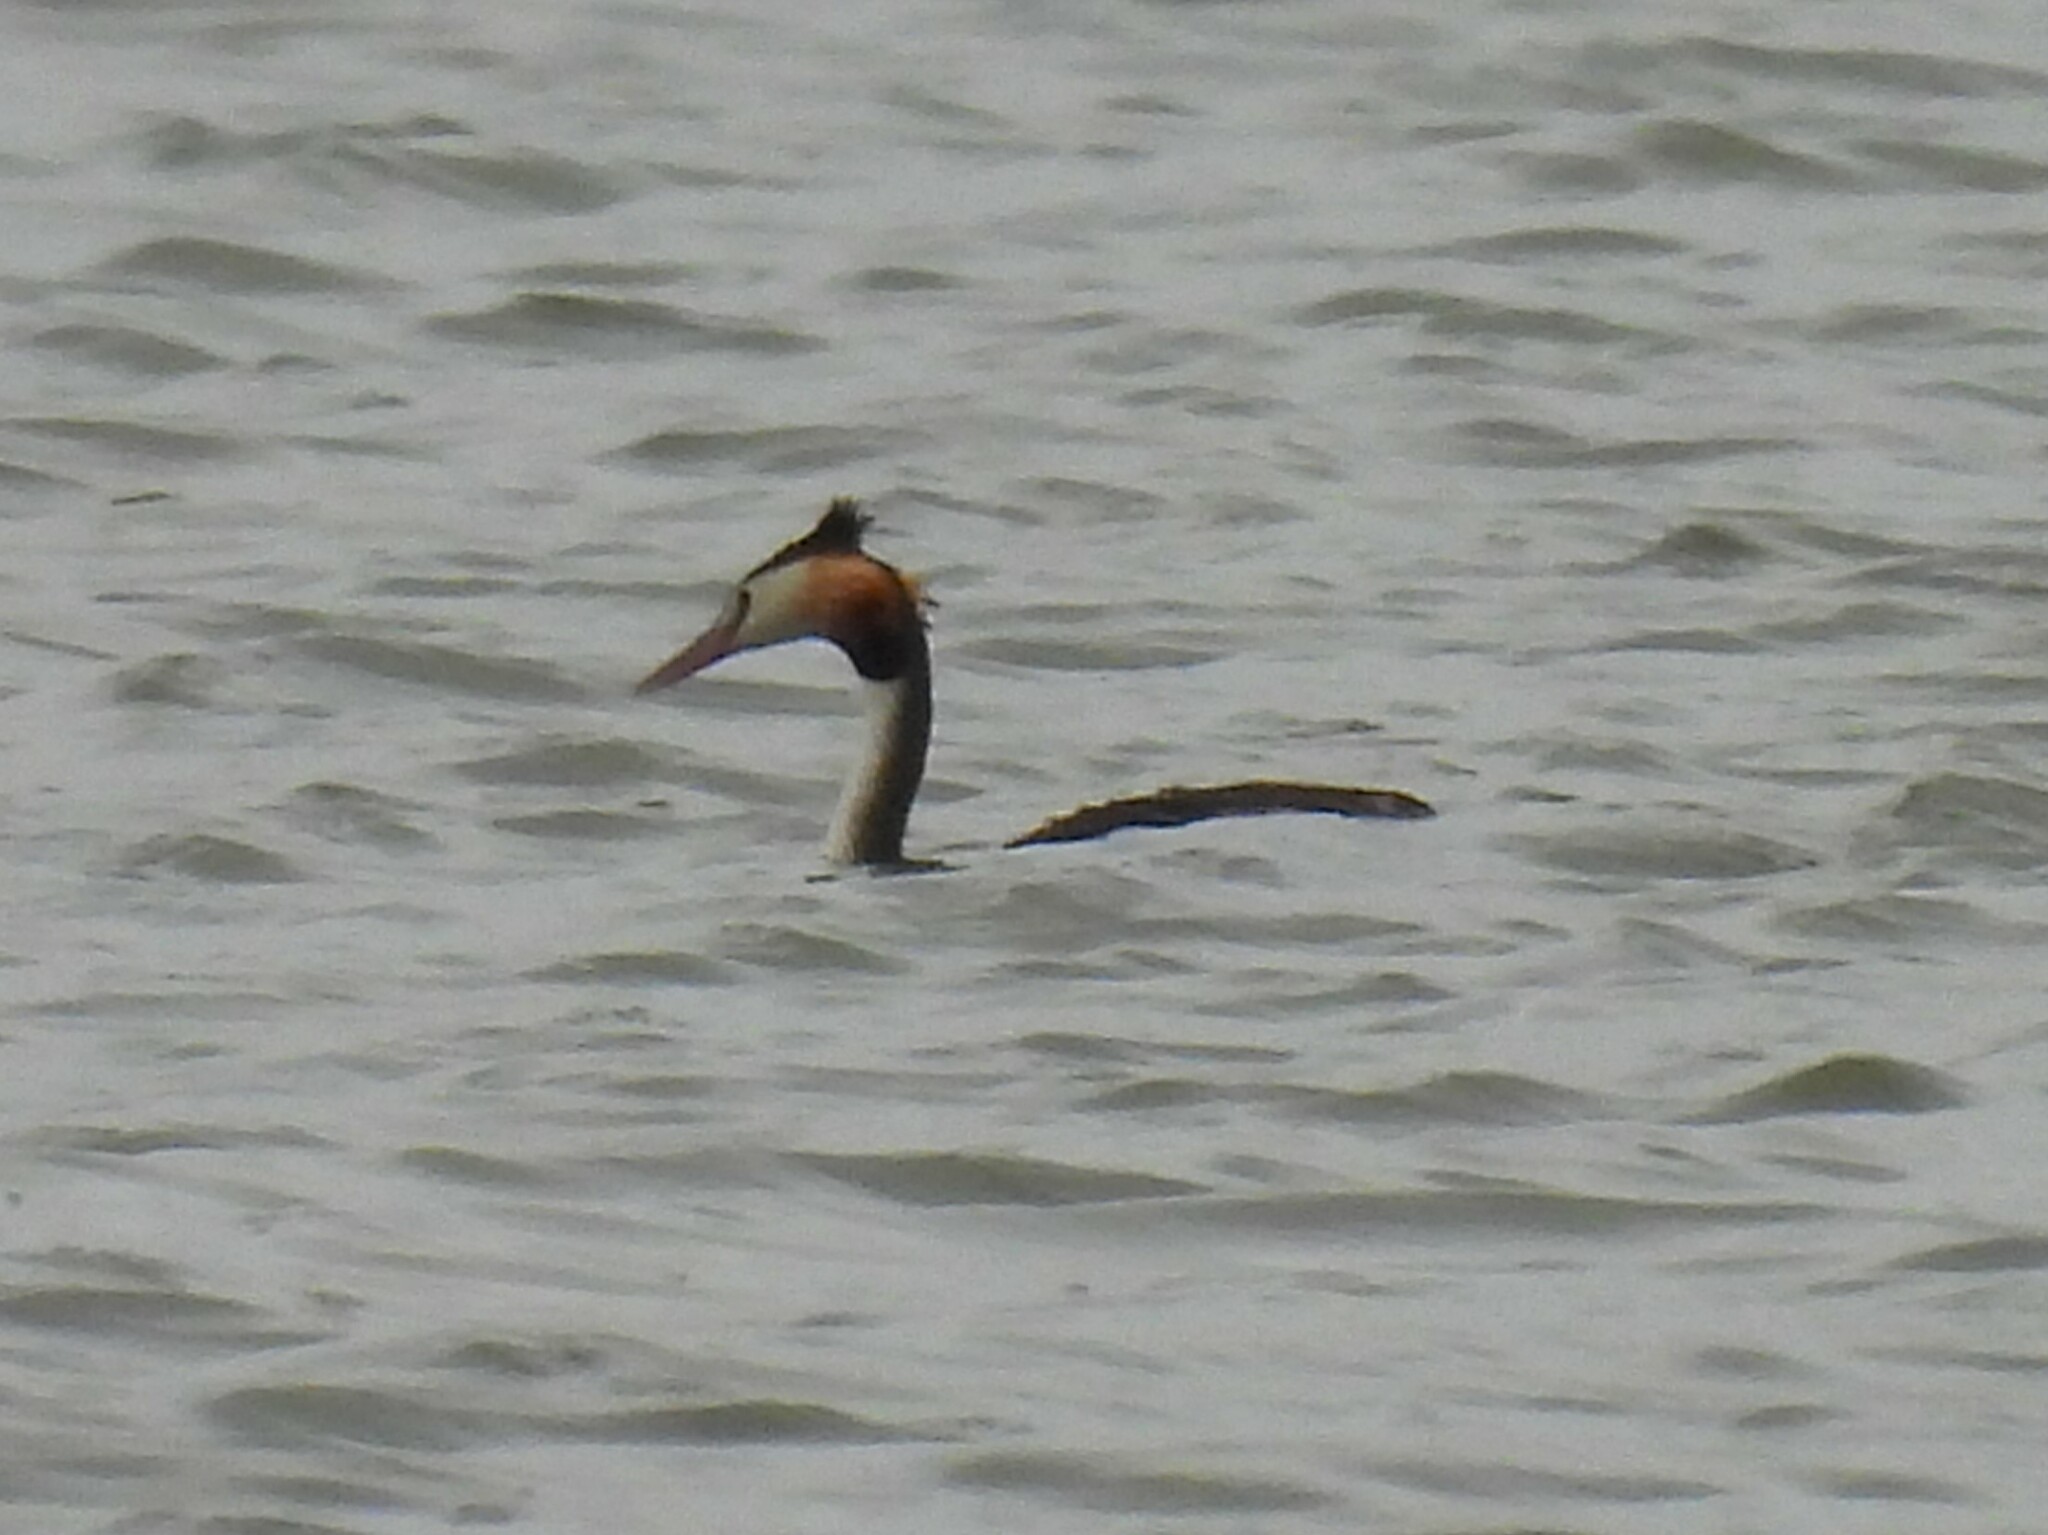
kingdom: Animalia
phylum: Chordata
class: Aves
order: Podicipediformes
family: Podicipedidae
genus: Podiceps
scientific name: Podiceps cristatus
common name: Great crested grebe
